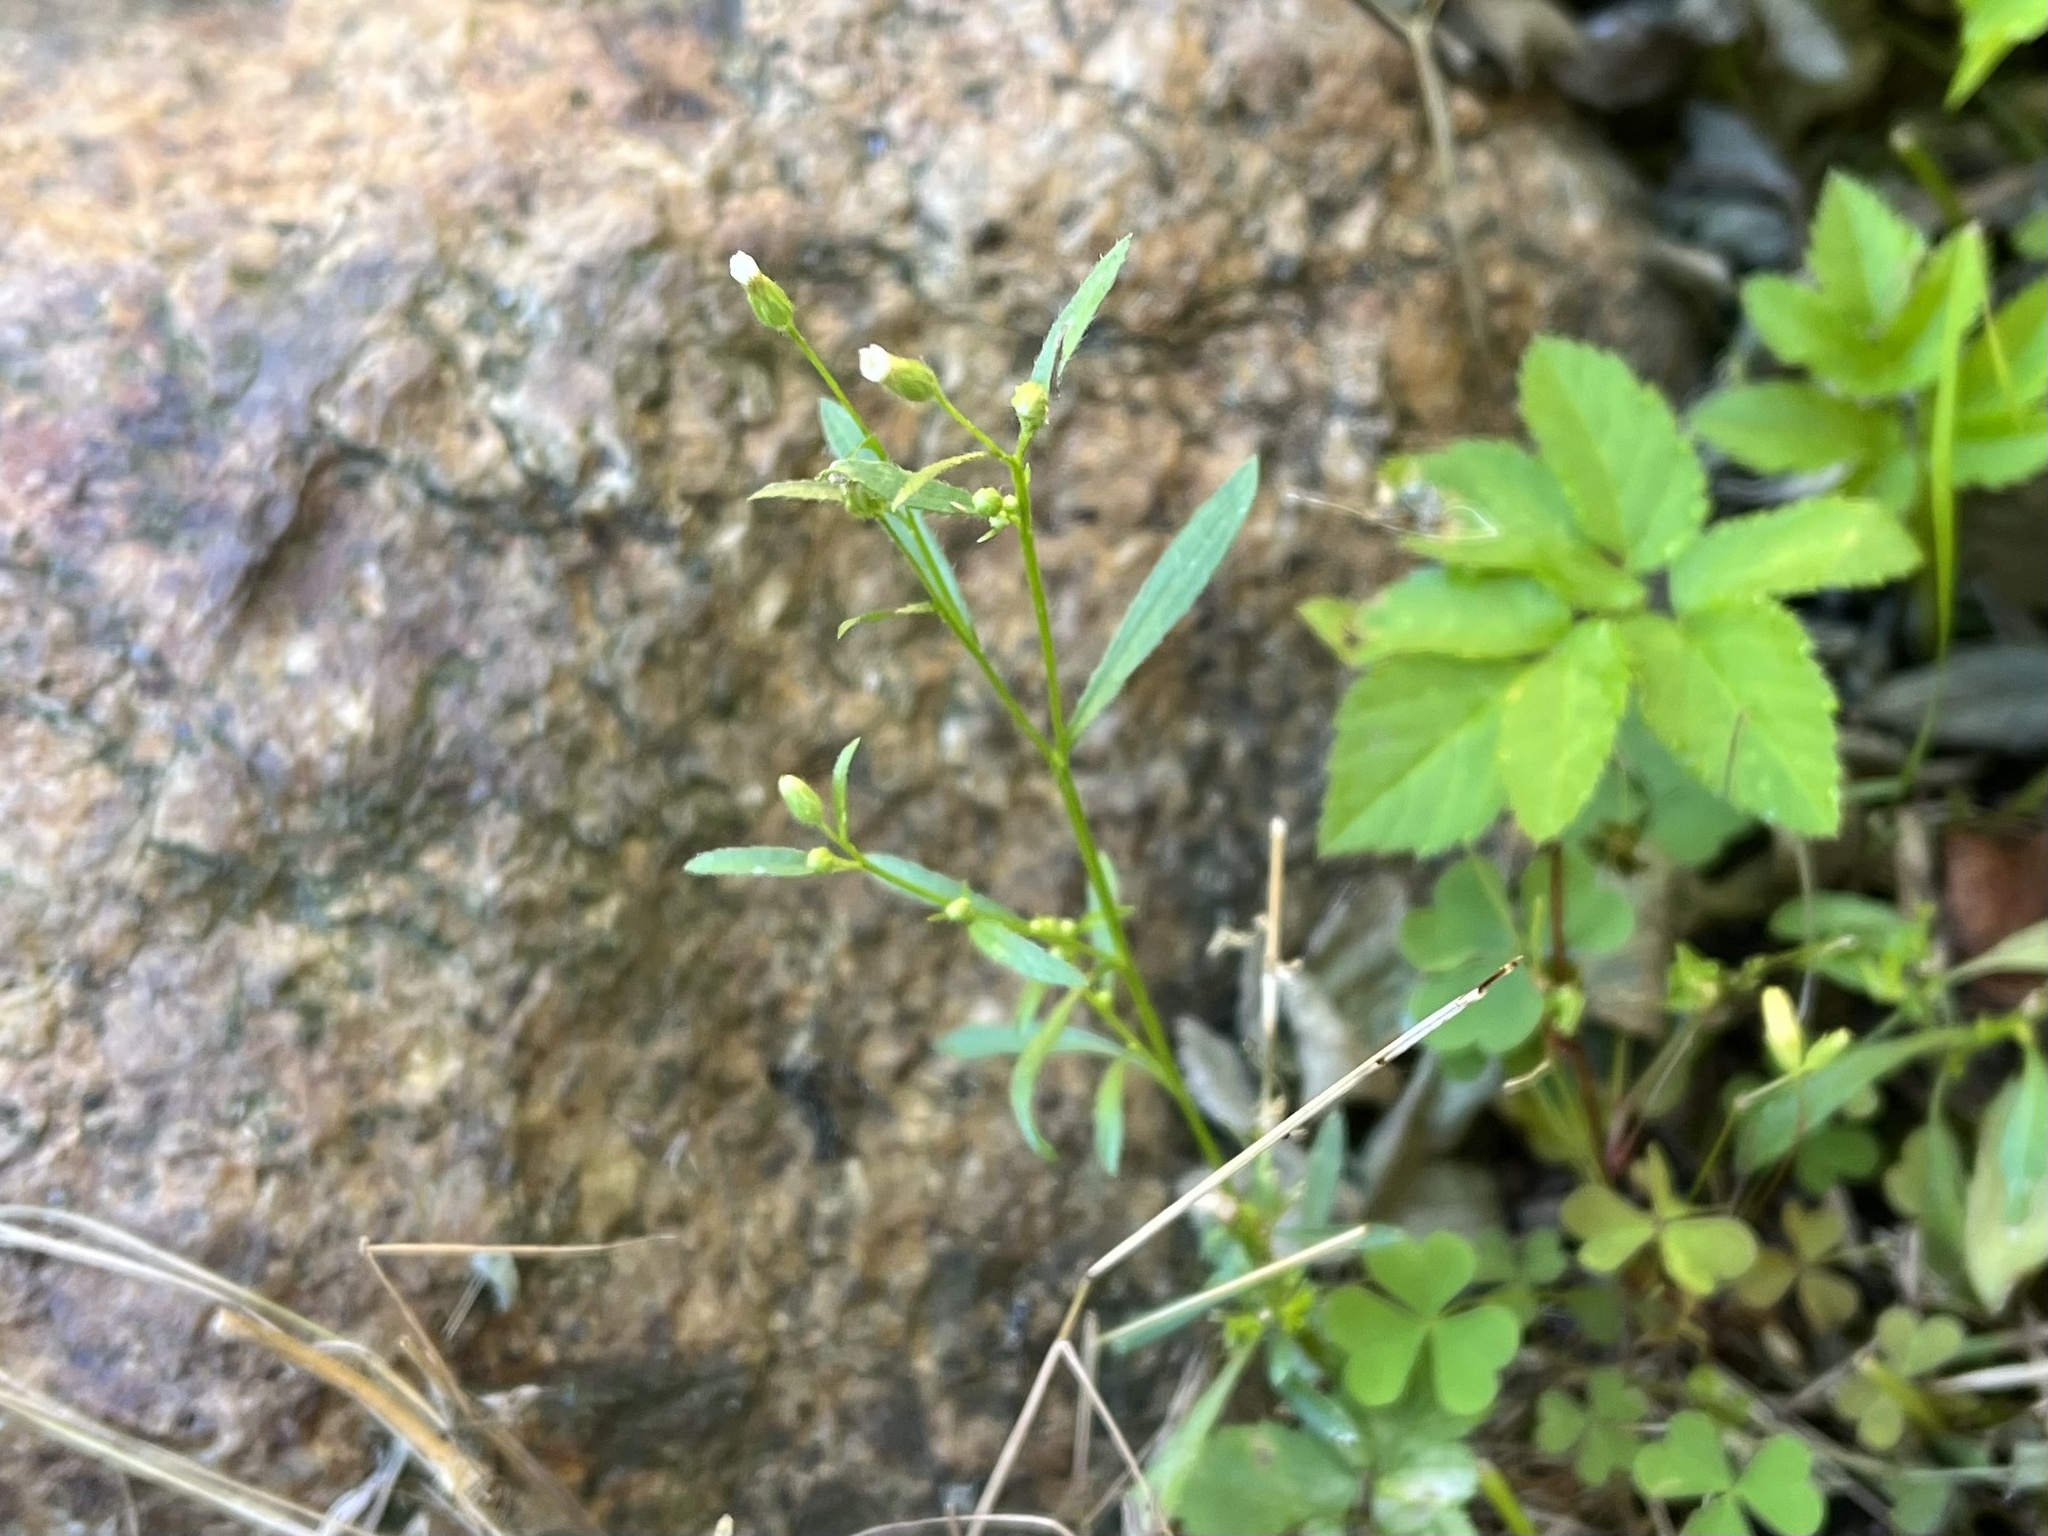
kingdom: Plantae
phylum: Tracheophyta
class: Magnoliopsida
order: Asterales
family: Asteraceae
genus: Erigeron
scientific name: Erigeron canadensis
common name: Canadian fleabane
